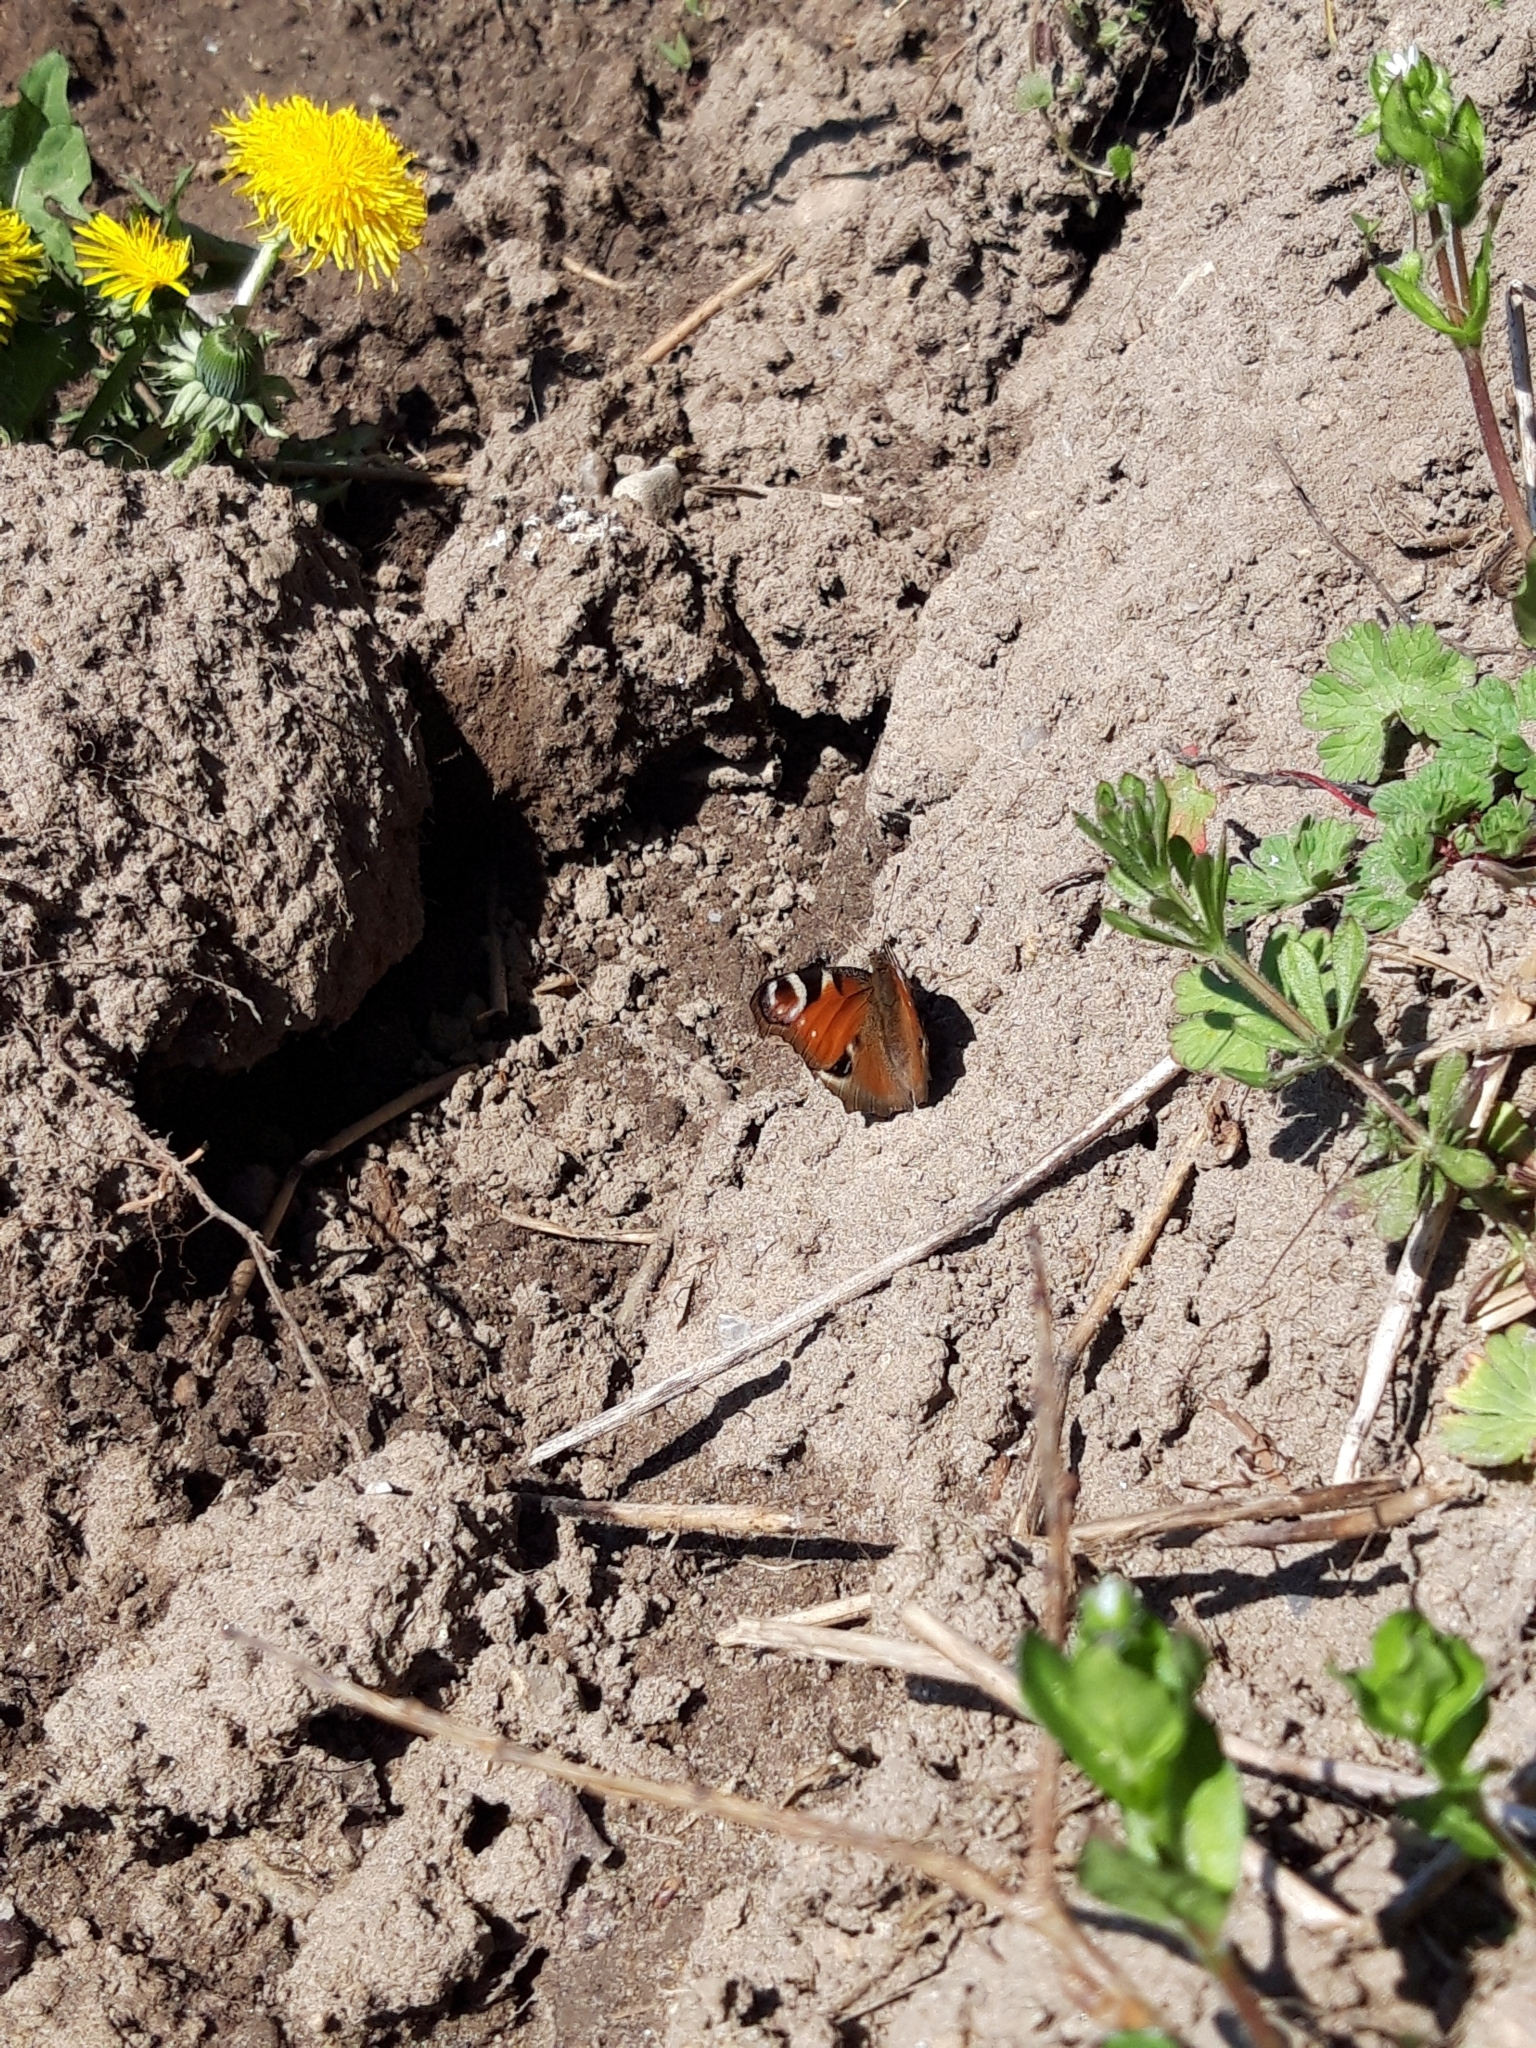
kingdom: Animalia
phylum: Arthropoda
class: Insecta
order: Lepidoptera
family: Nymphalidae
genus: Aglais
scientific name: Aglais io
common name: Peacock
